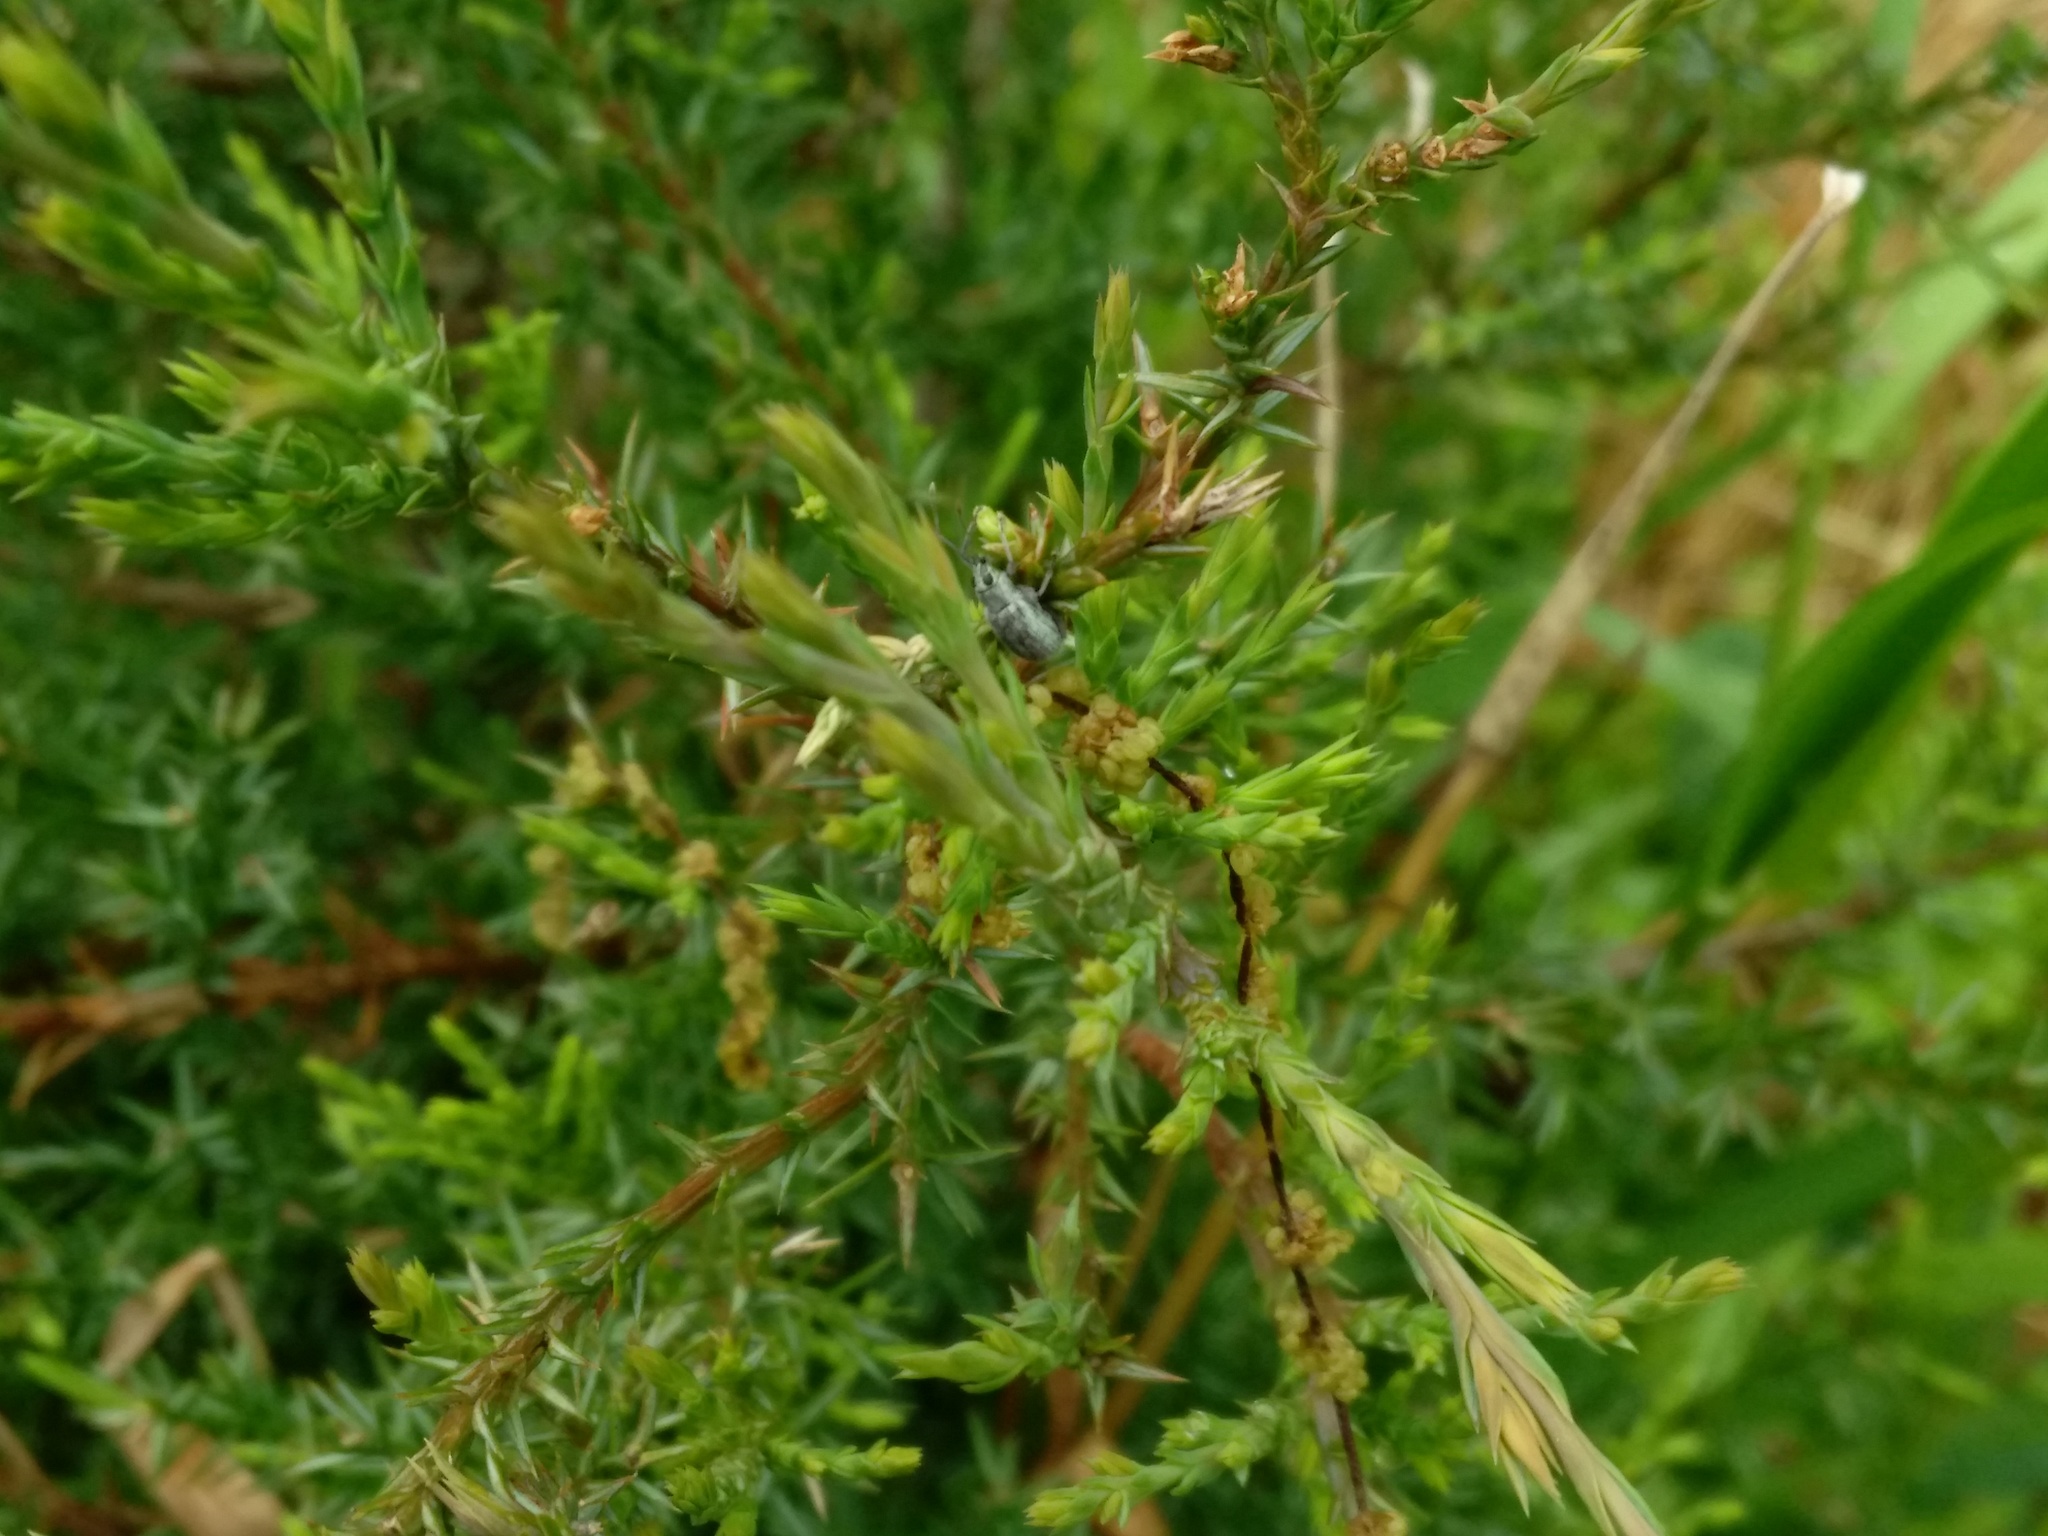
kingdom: Animalia
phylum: Arthropoda
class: Insecta
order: Coleoptera
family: Curculionidae
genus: Cyrtepistomus
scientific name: Cyrtepistomus castaneus
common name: Weevil
